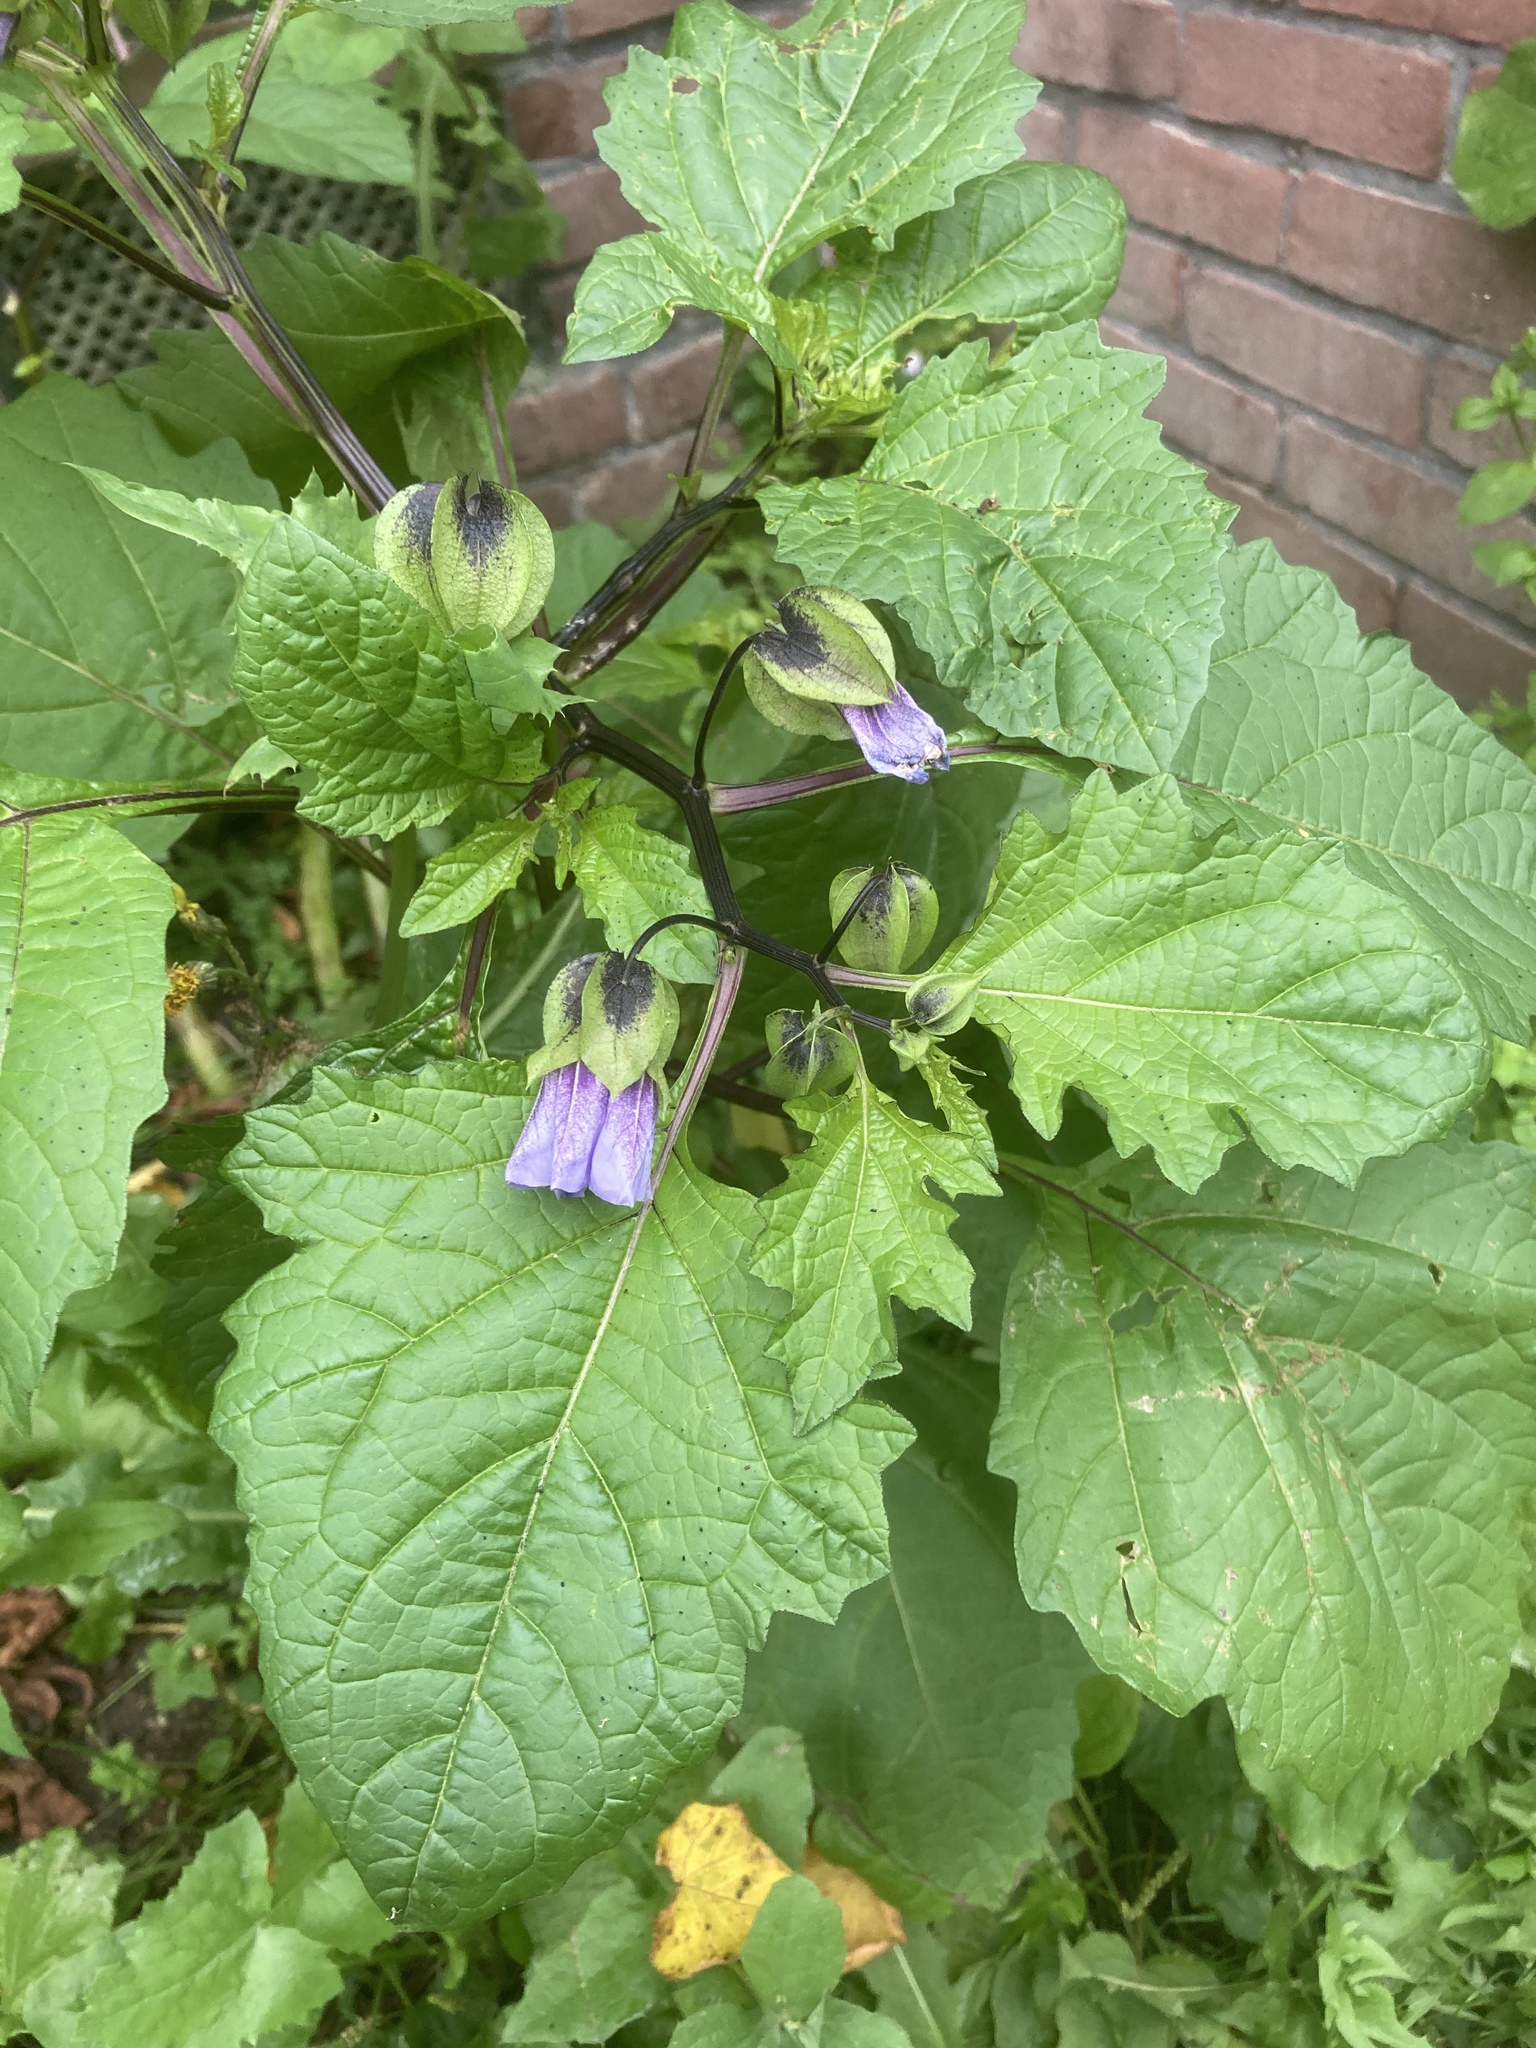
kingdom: Plantae
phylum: Tracheophyta
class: Magnoliopsida
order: Solanales
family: Solanaceae
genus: Nicandra
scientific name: Nicandra physalodes
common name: Apple-of-peru
